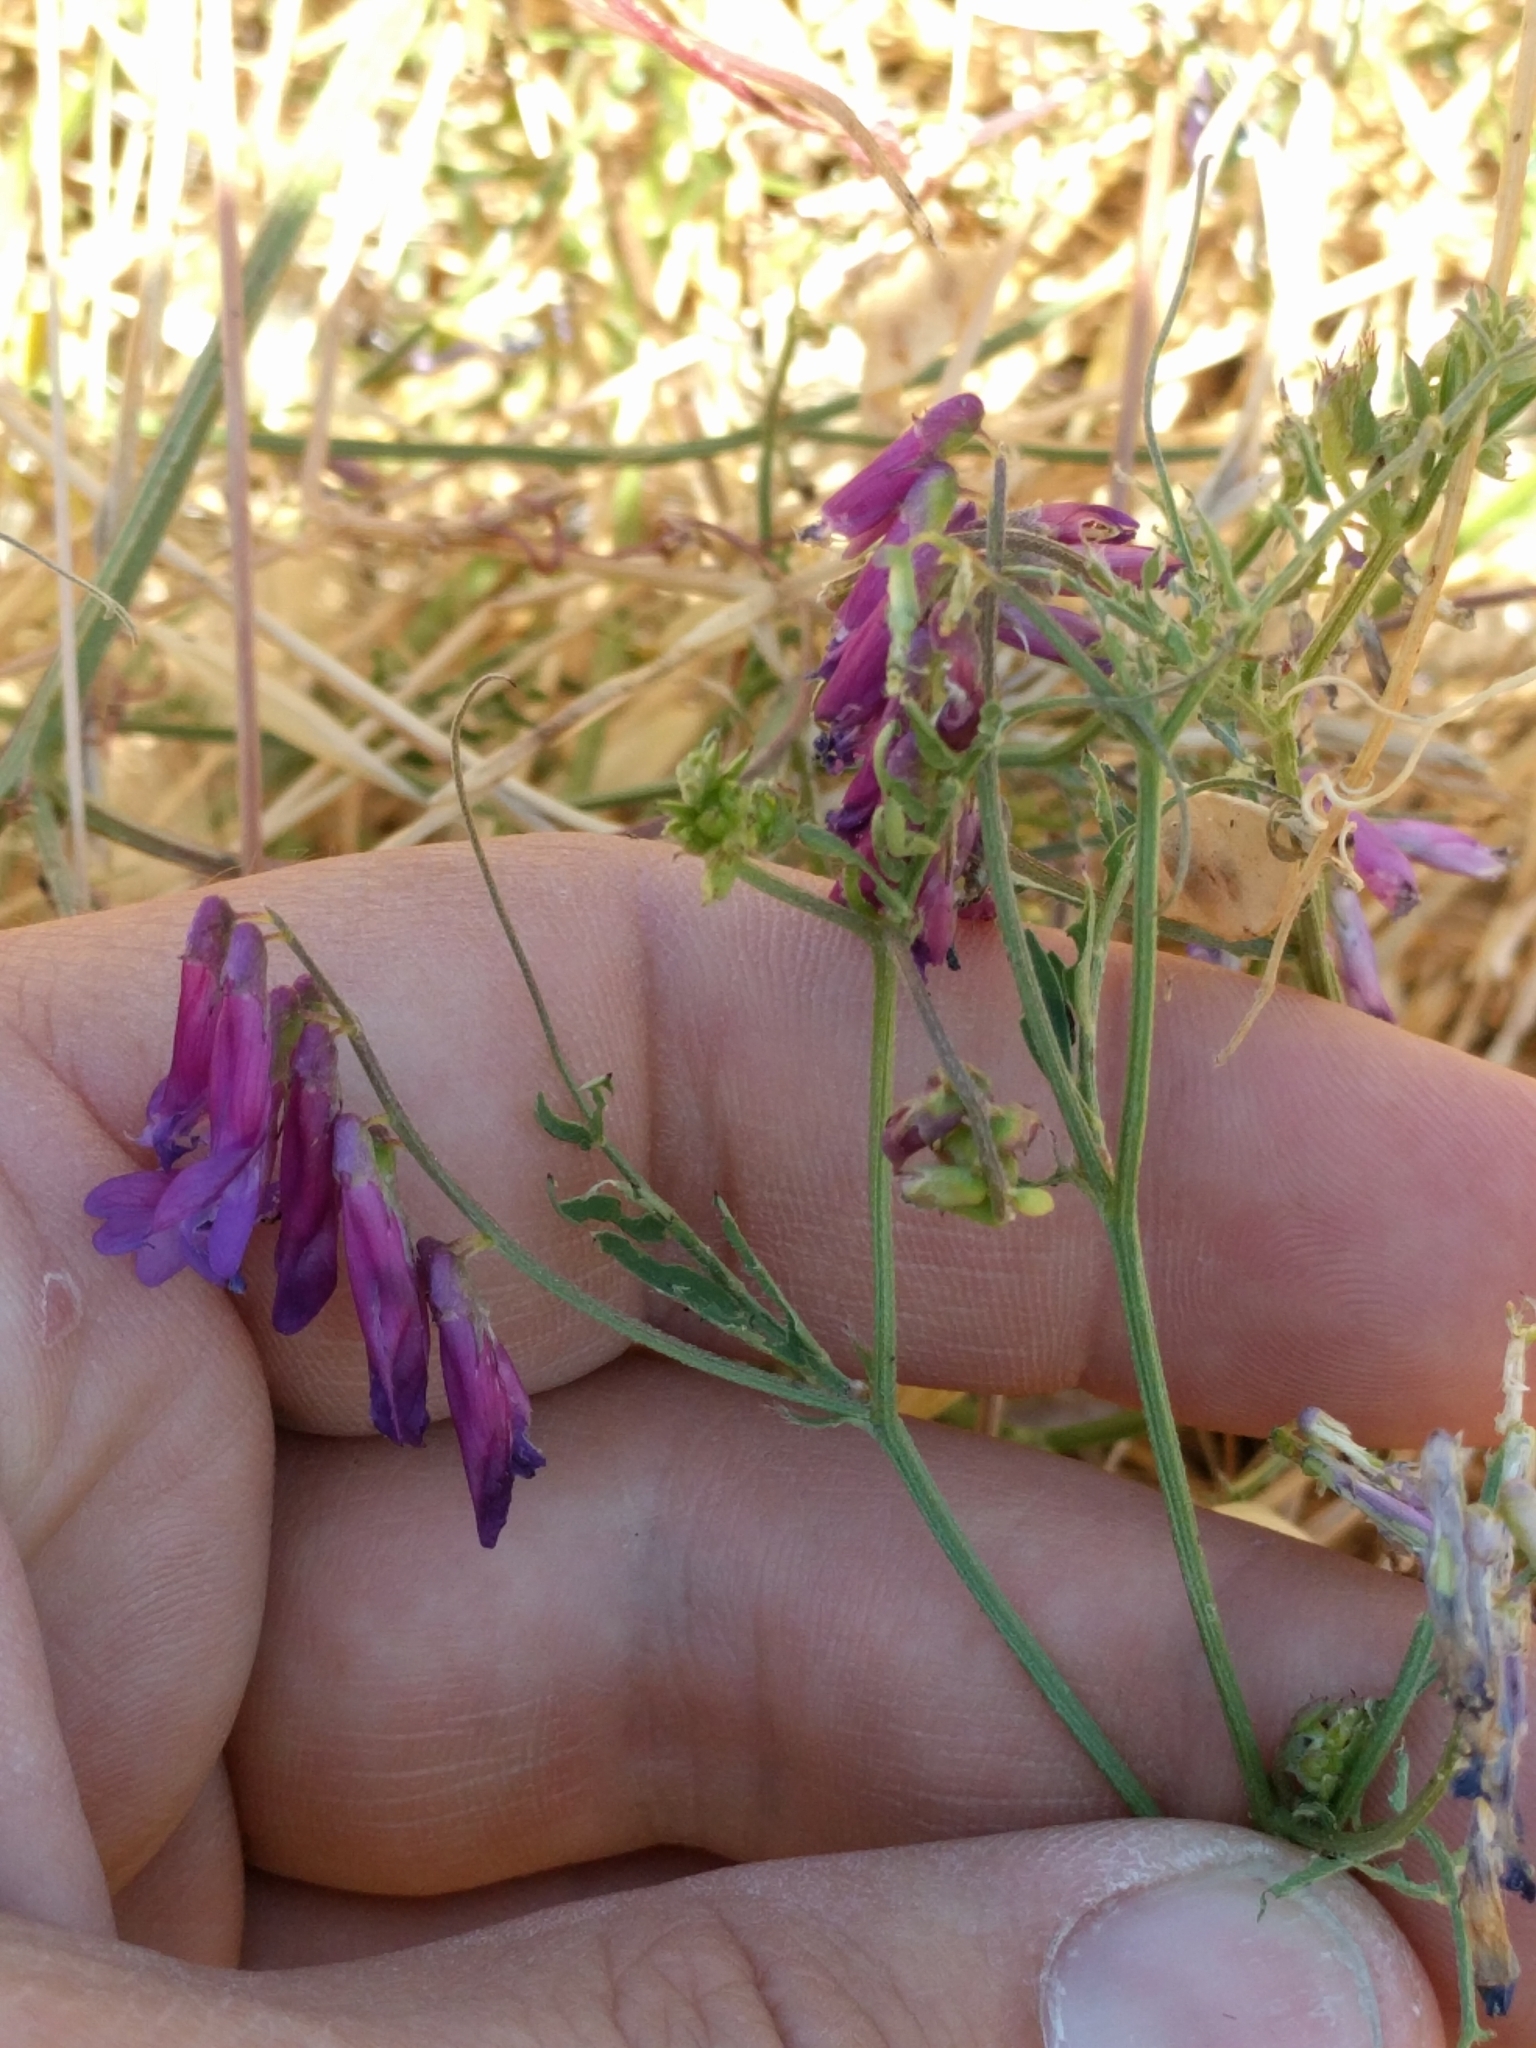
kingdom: Plantae
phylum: Tracheophyta
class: Magnoliopsida
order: Fabales
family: Fabaceae
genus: Vicia
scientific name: Vicia villosa
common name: Fodder vetch
